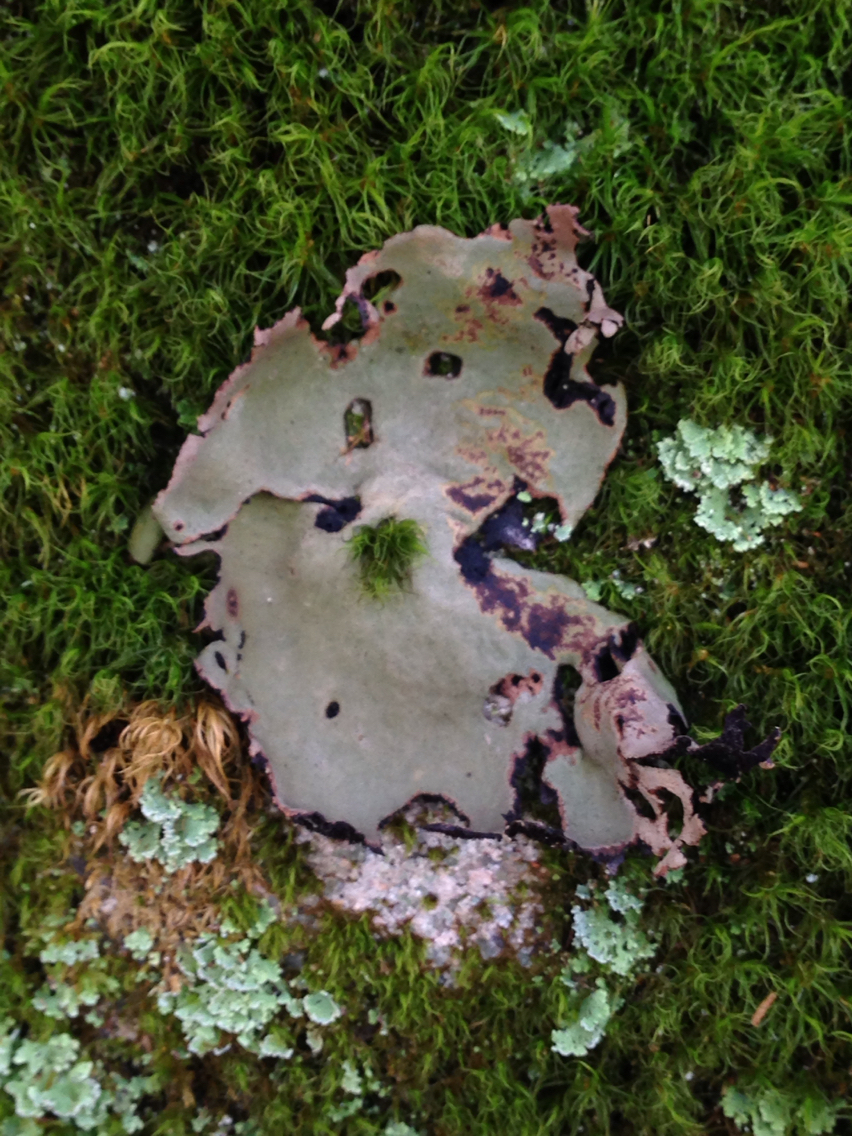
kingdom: Fungi
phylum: Ascomycota
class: Lecanoromycetes
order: Umbilicariales
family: Umbilicariaceae
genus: Umbilicaria
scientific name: Umbilicaria mammulata
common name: Smooth rock tripe
